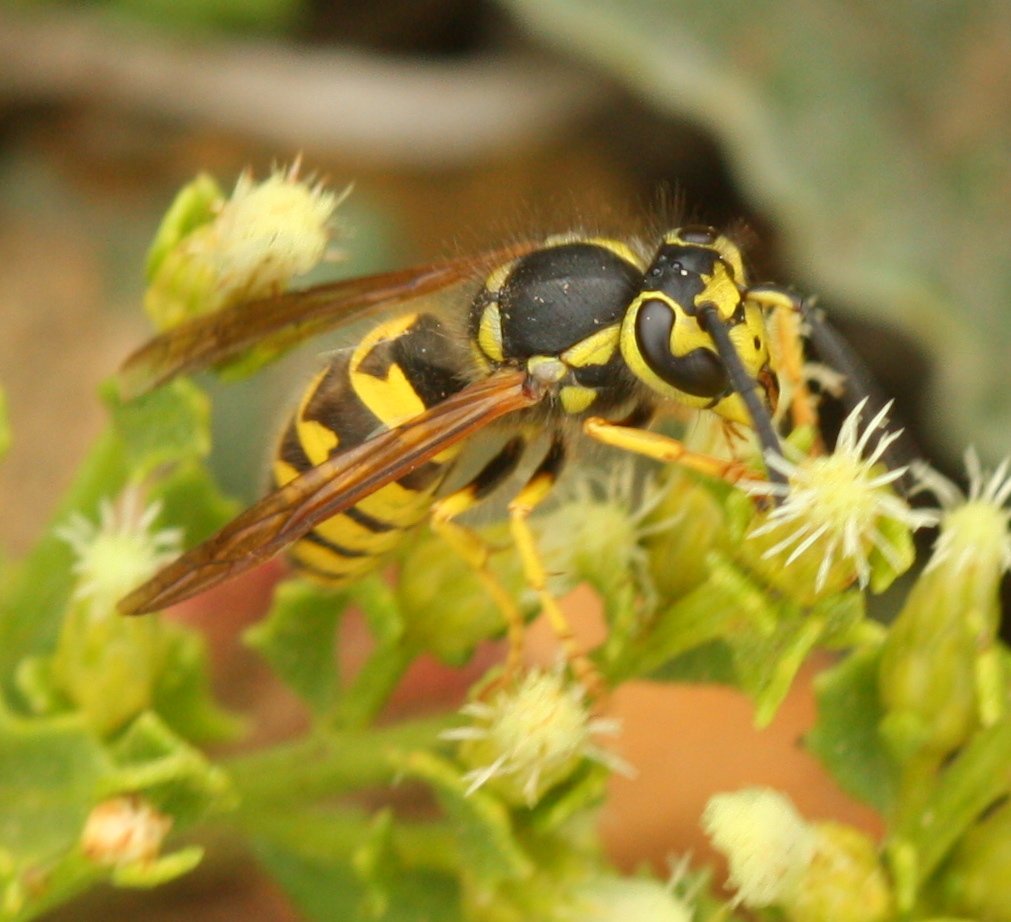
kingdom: Animalia
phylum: Arthropoda
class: Insecta
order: Hymenoptera
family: Vespidae
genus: Vespula
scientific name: Vespula pensylvanica
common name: Western yellowjacket
